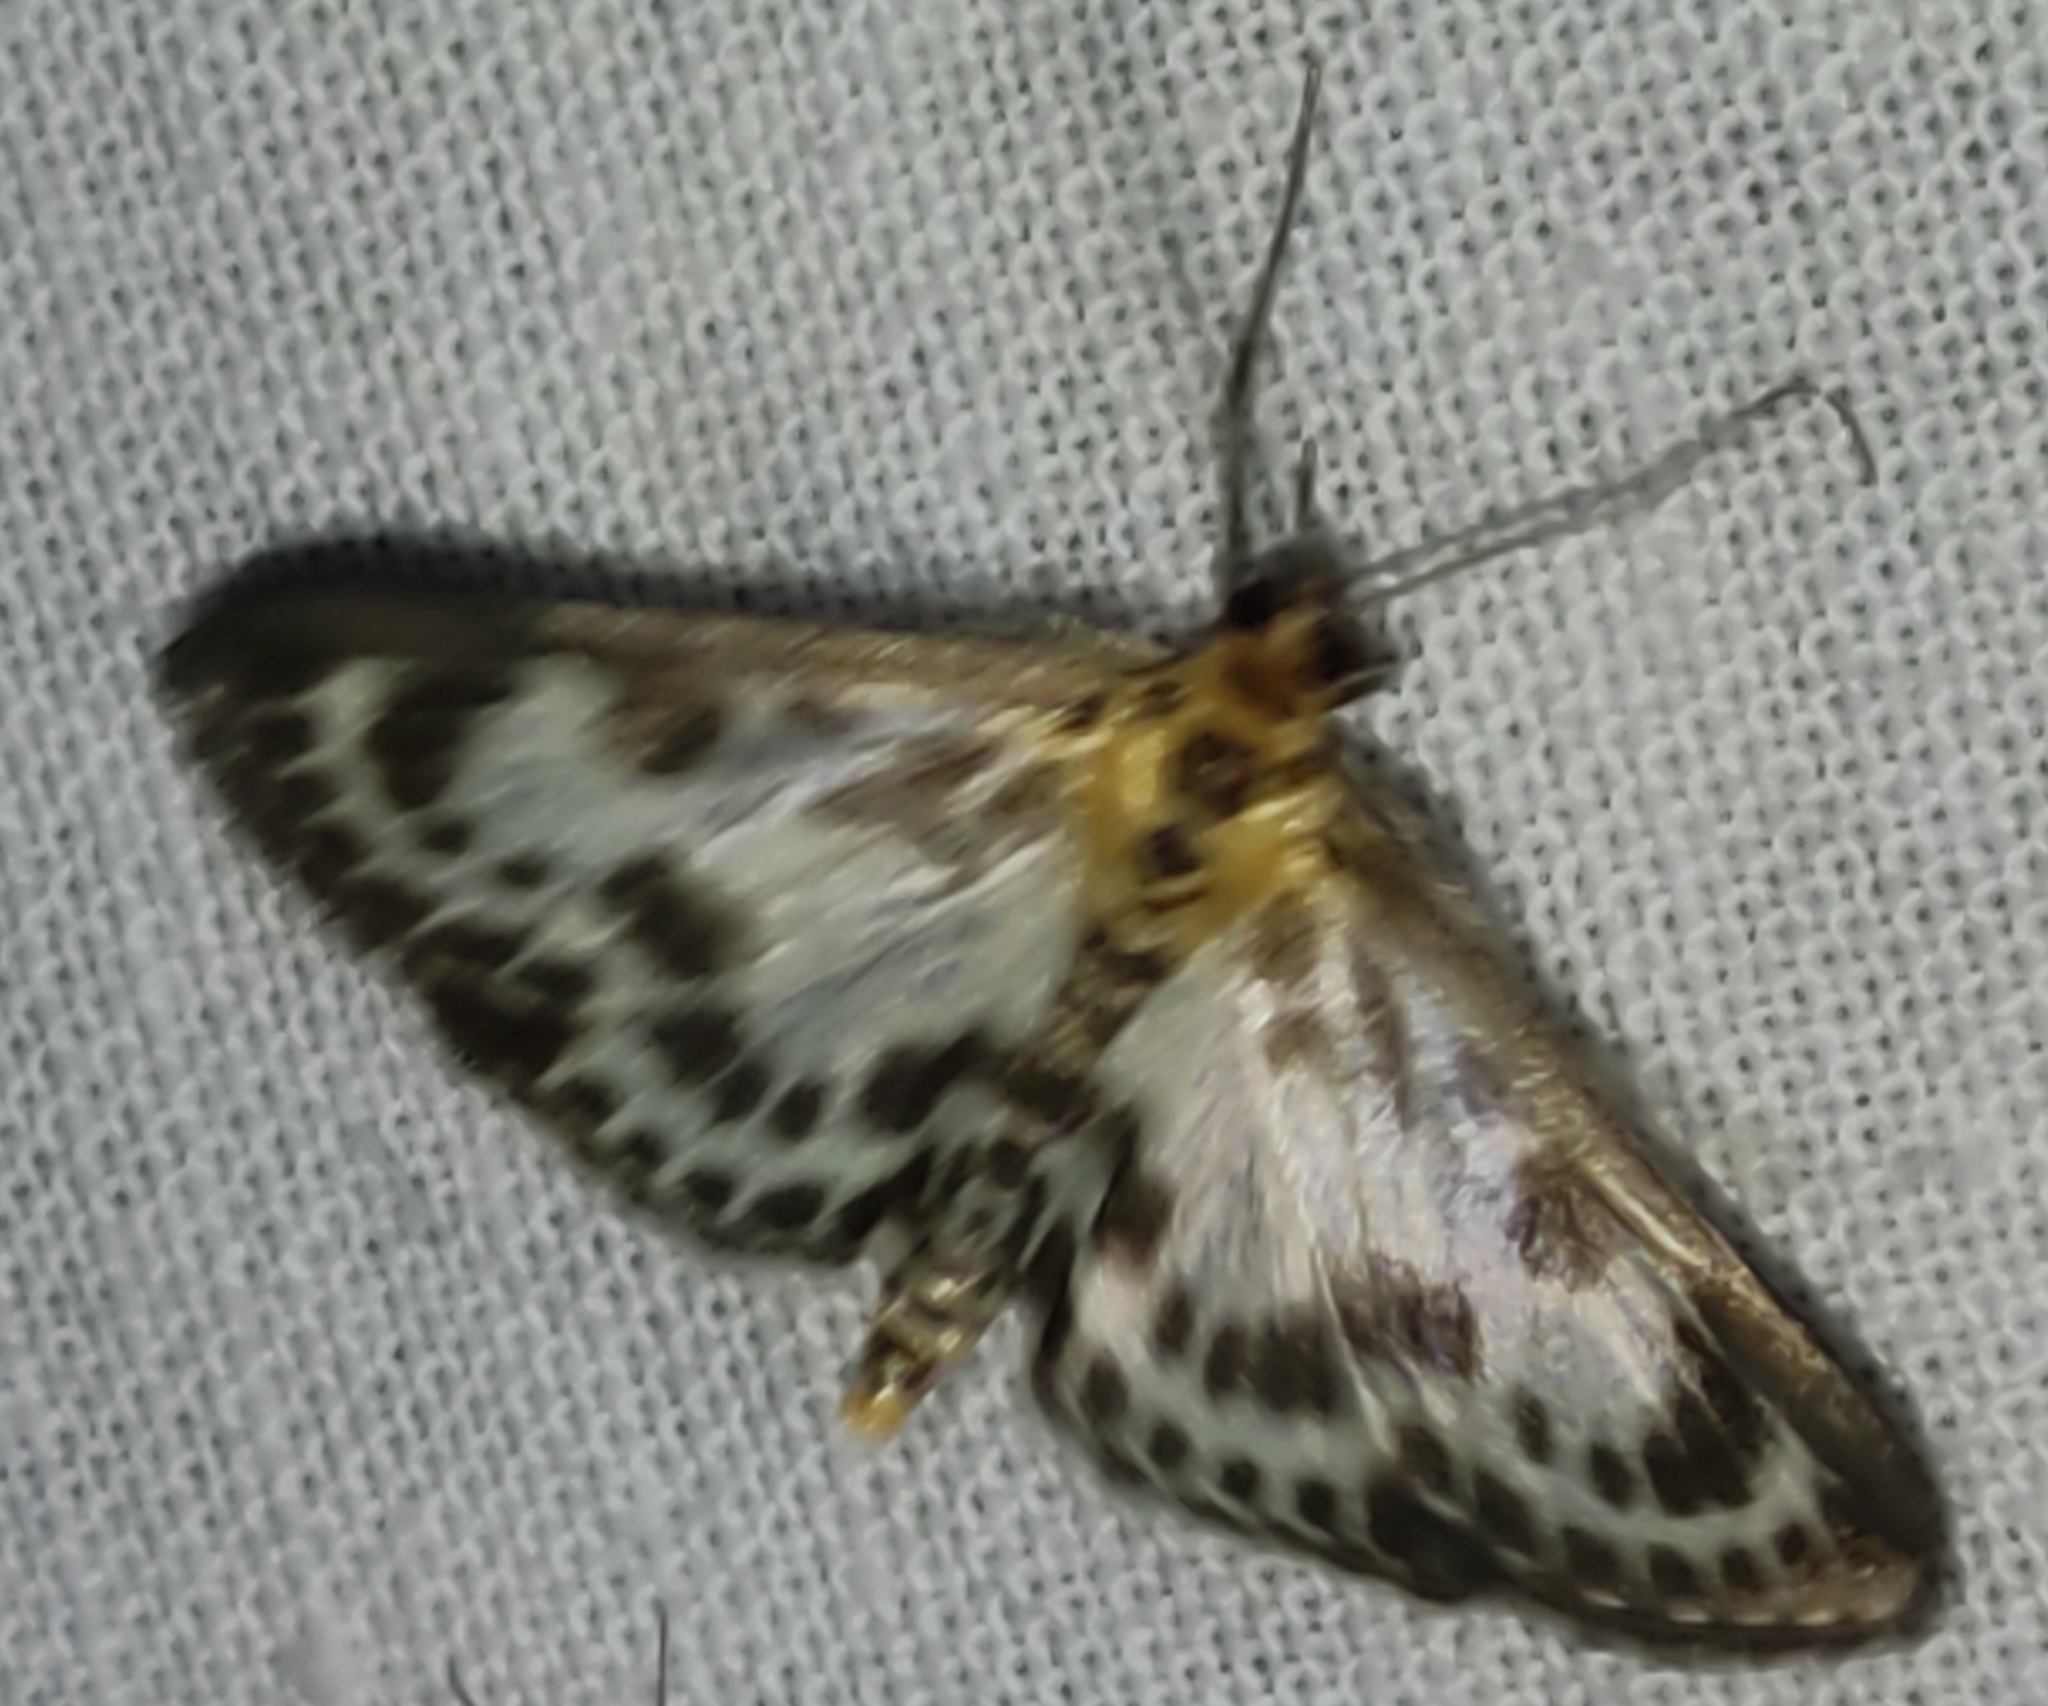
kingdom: Animalia
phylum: Arthropoda
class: Insecta
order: Lepidoptera
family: Crambidae
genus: Anania
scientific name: Anania hortulata
